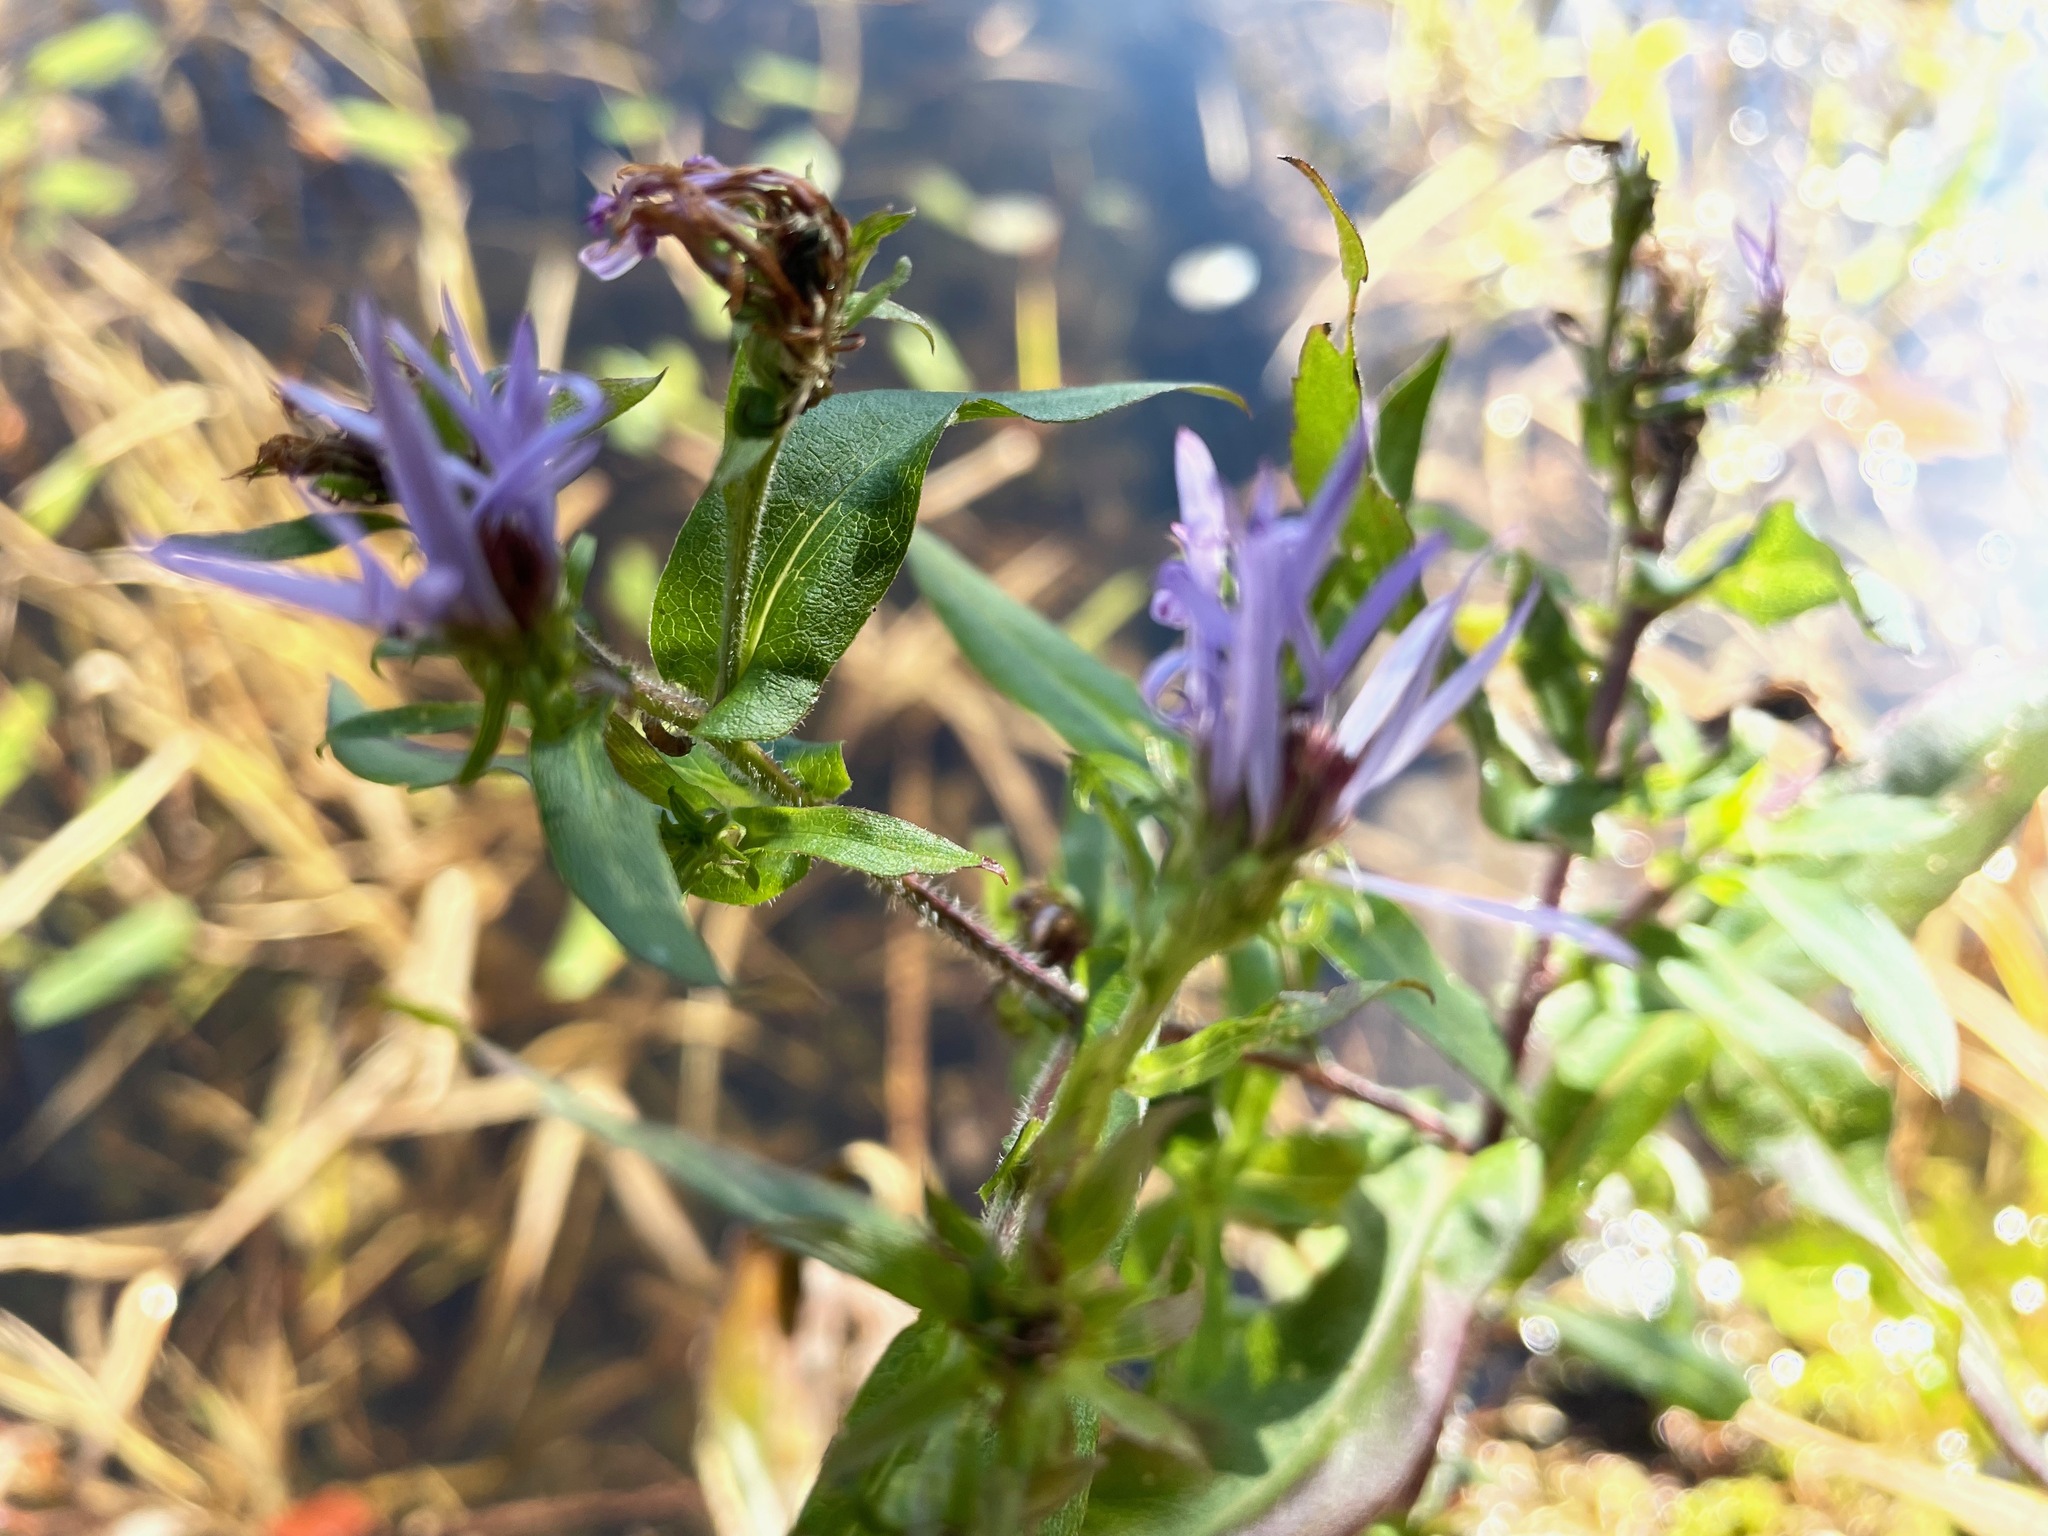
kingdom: Plantae
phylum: Tracheophyta
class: Magnoliopsida
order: Asterales
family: Asteraceae
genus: Symphyotrichum
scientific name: Symphyotrichum puniceum
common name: Bog aster
